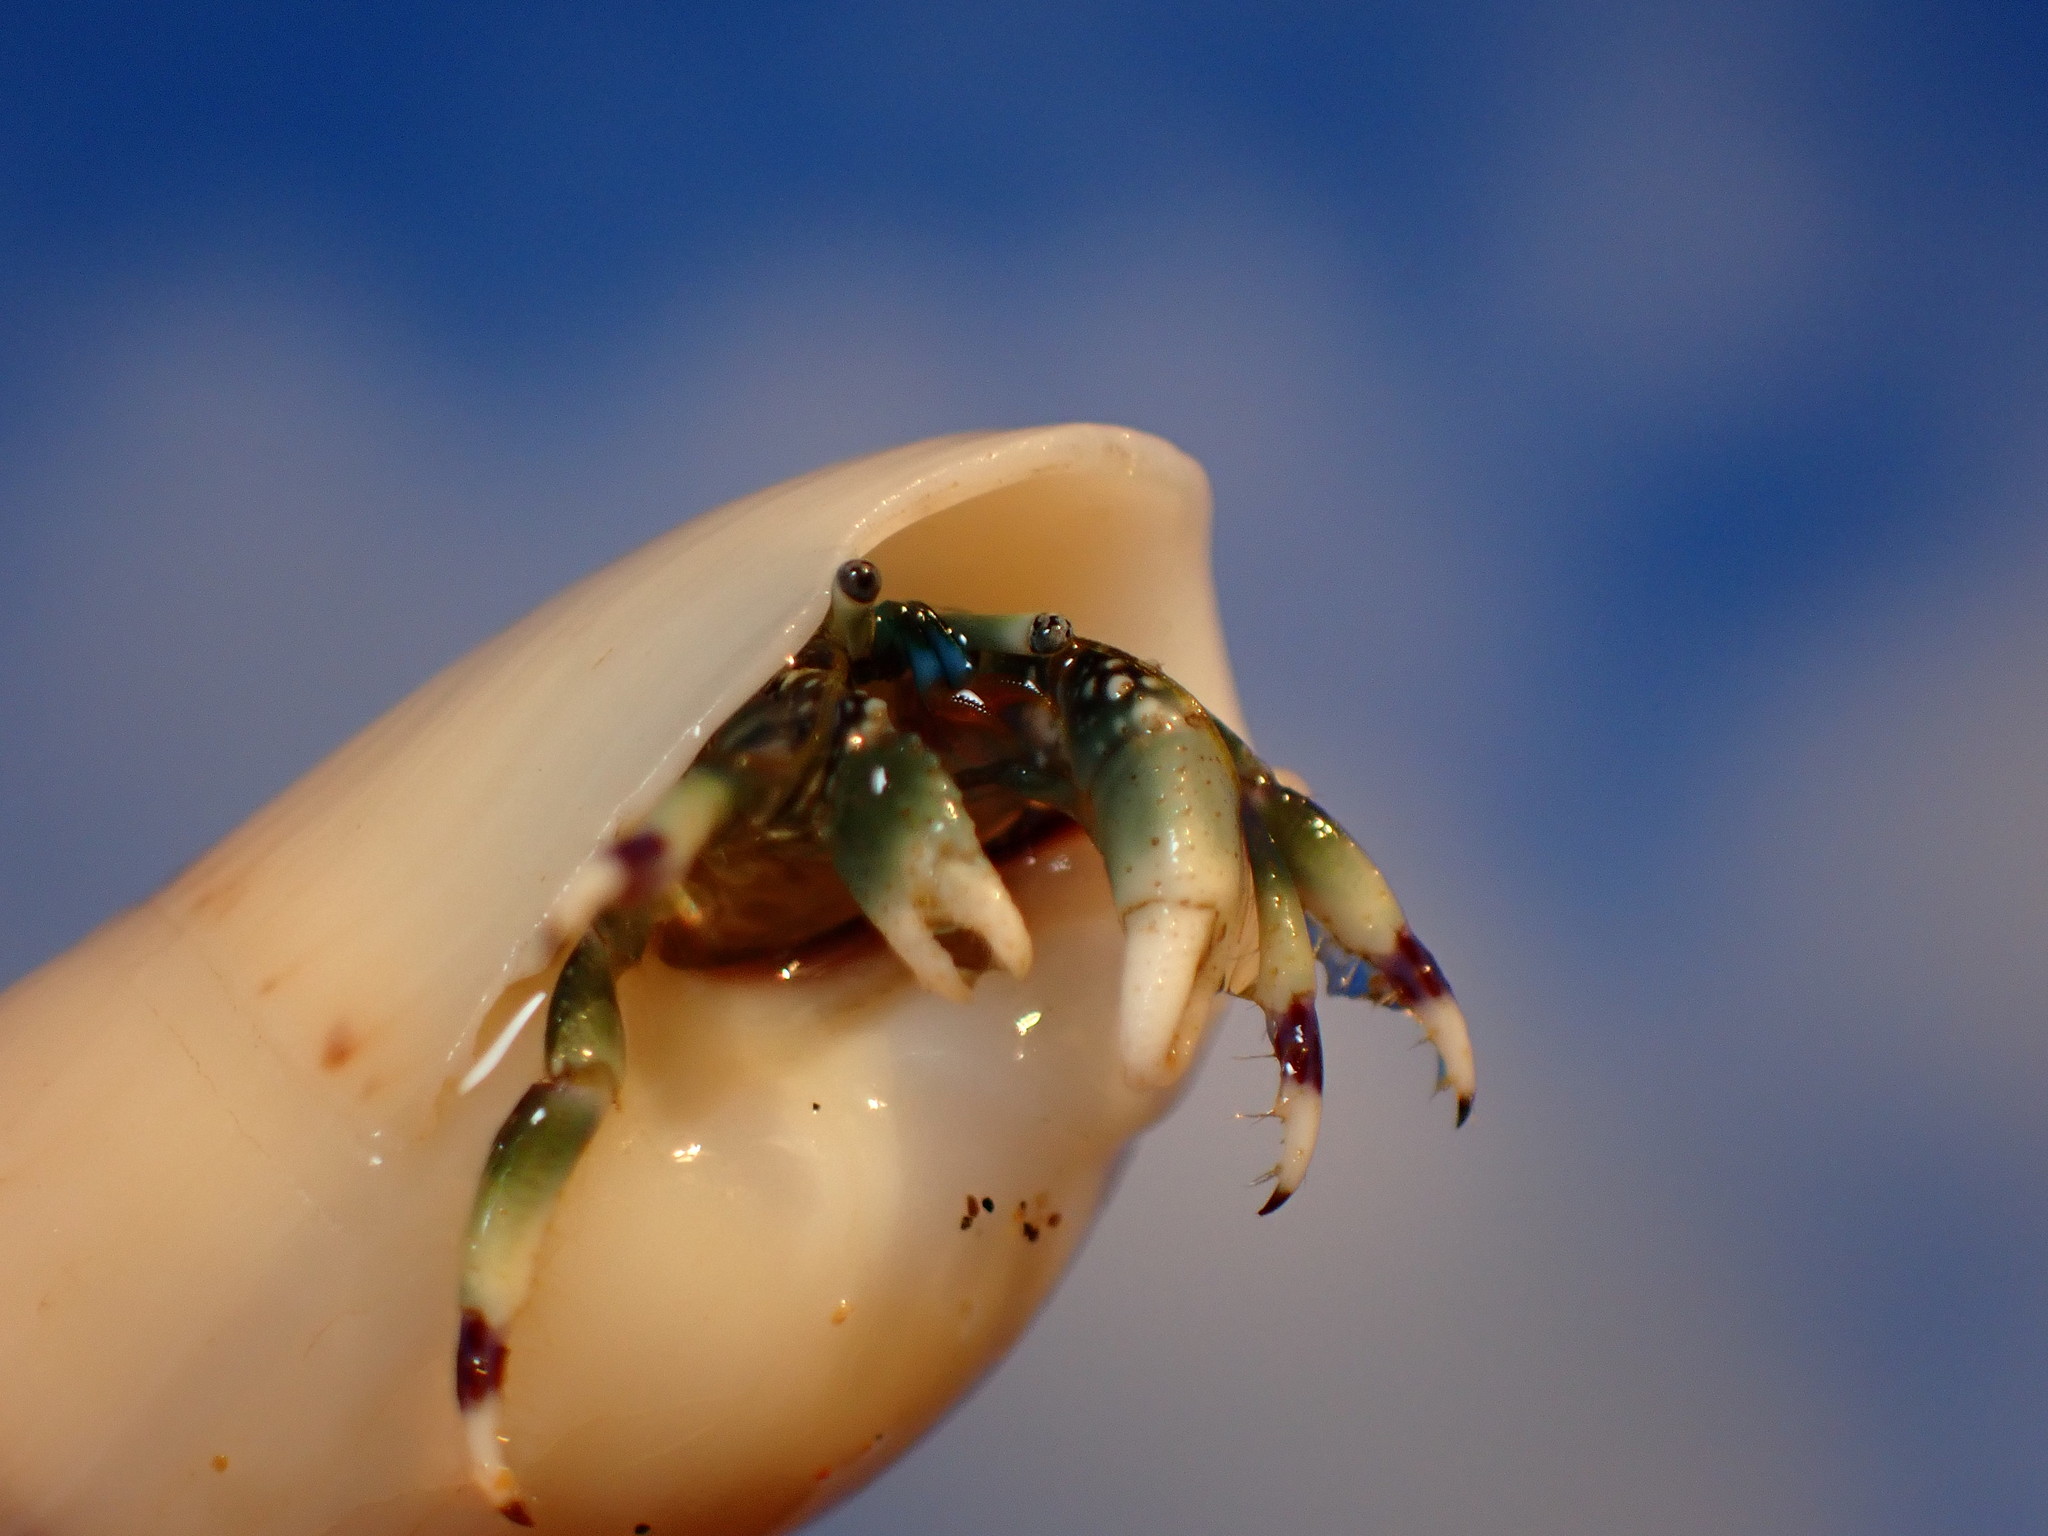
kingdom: Animalia
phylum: Arthropoda
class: Malacostraca
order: Decapoda
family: Diogenidae
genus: Calcinus
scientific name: Calcinus latens
